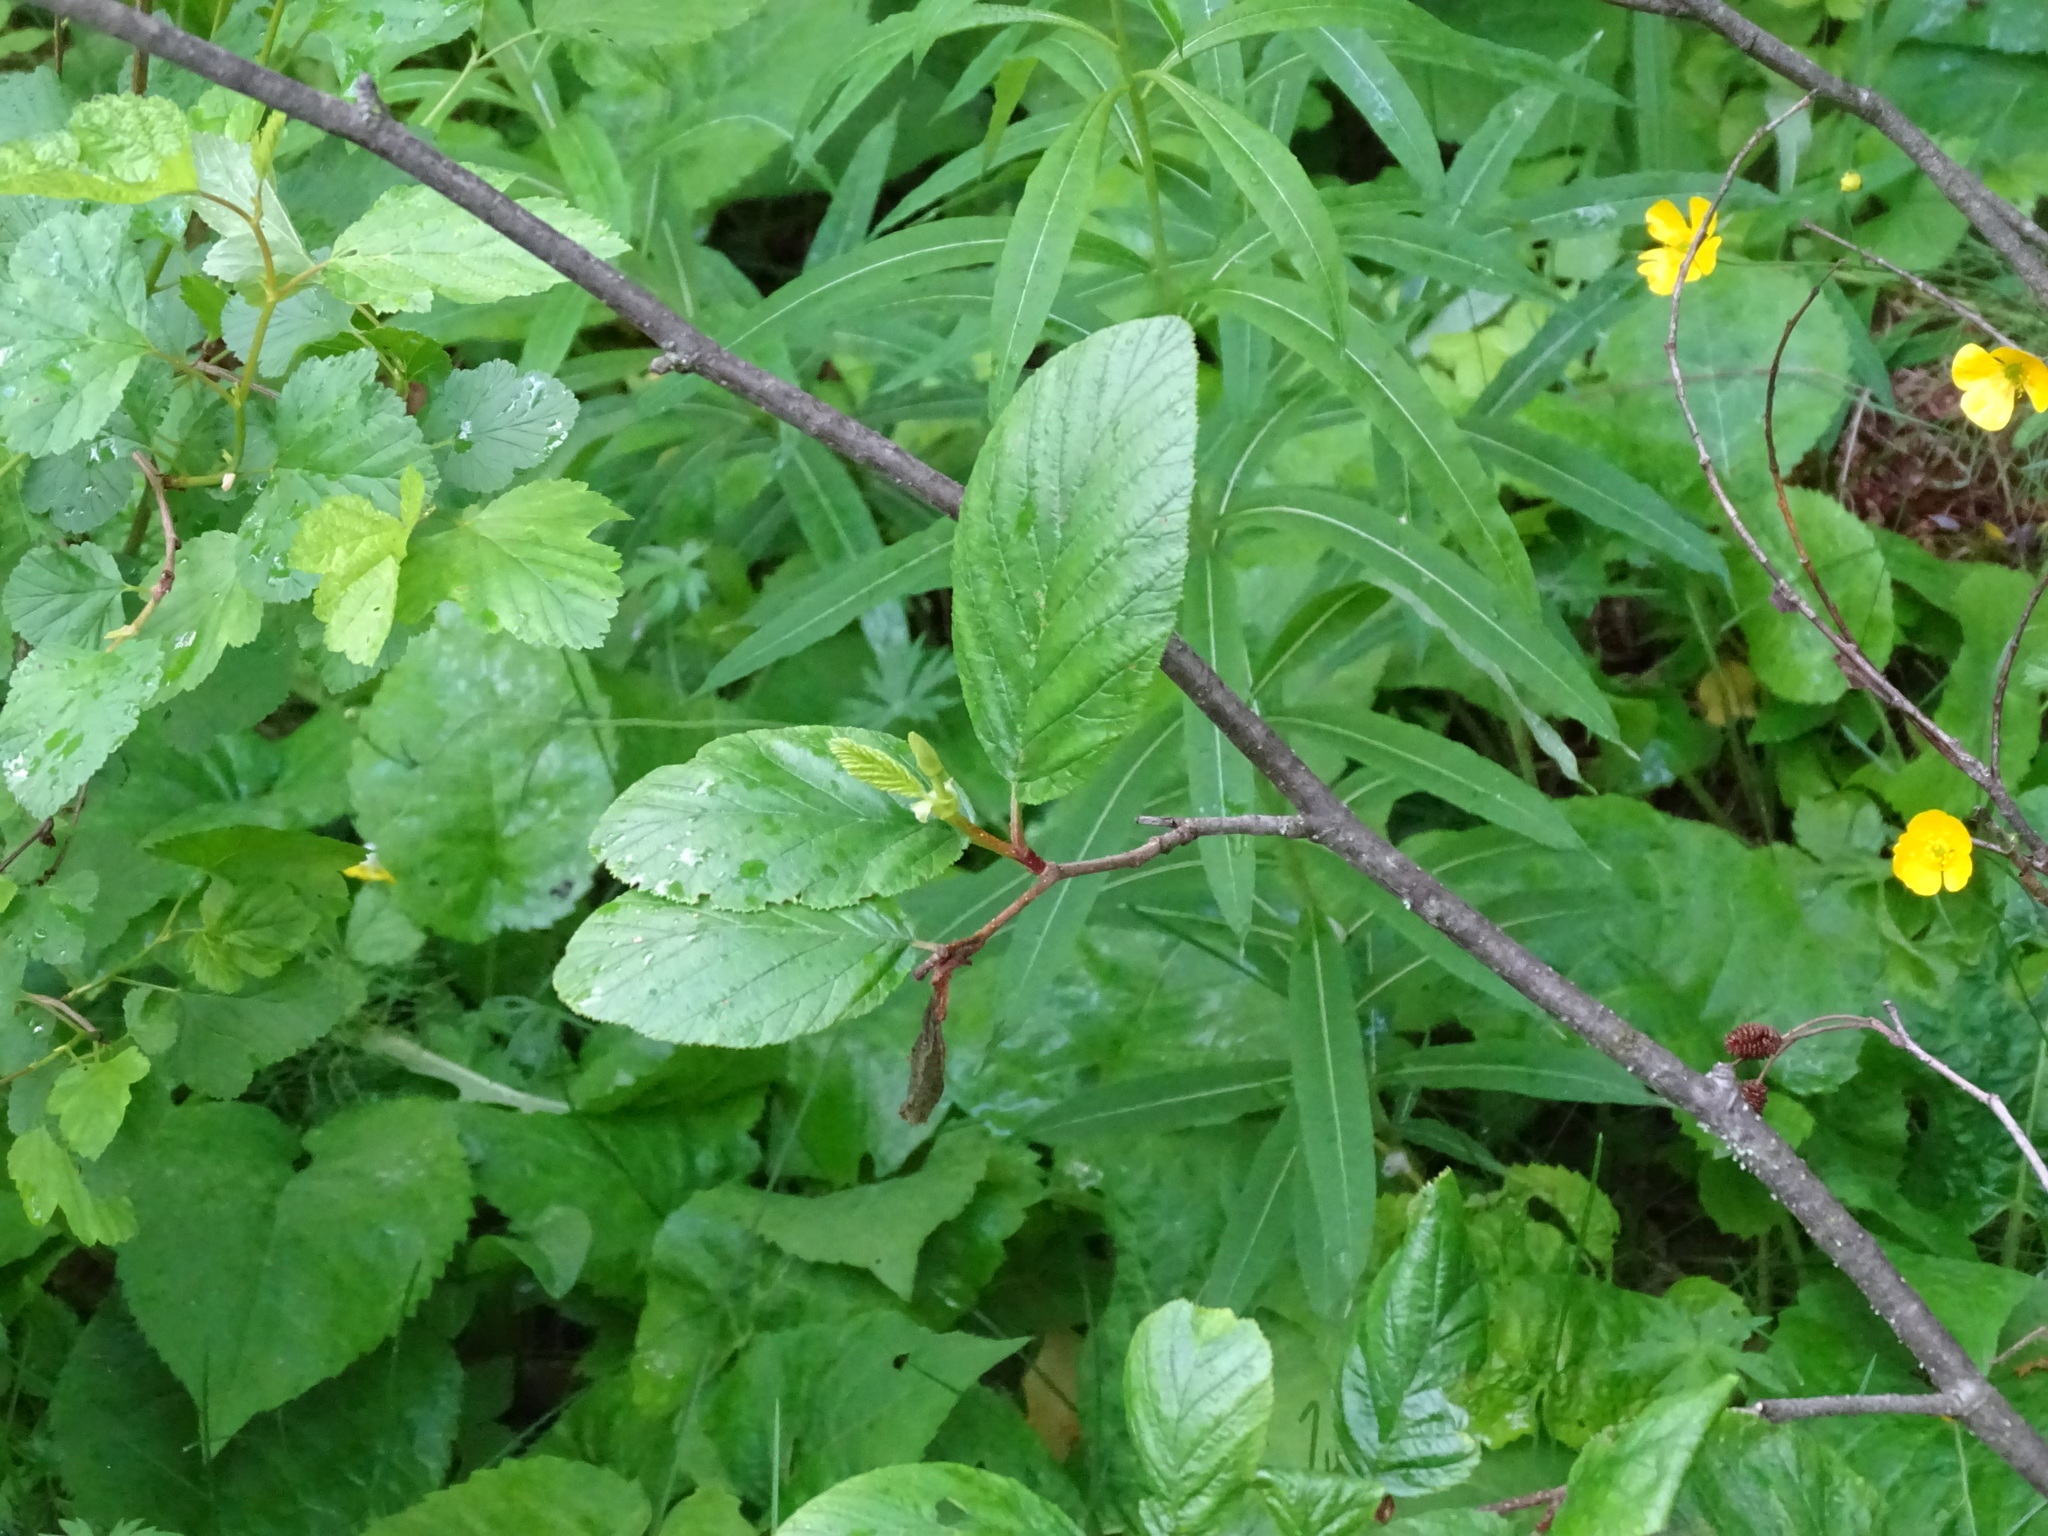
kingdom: Plantae
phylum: Tracheophyta
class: Magnoliopsida
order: Fagales
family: Betulaceae
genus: Alnus
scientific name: Alnus alnobetula
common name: Green alder
